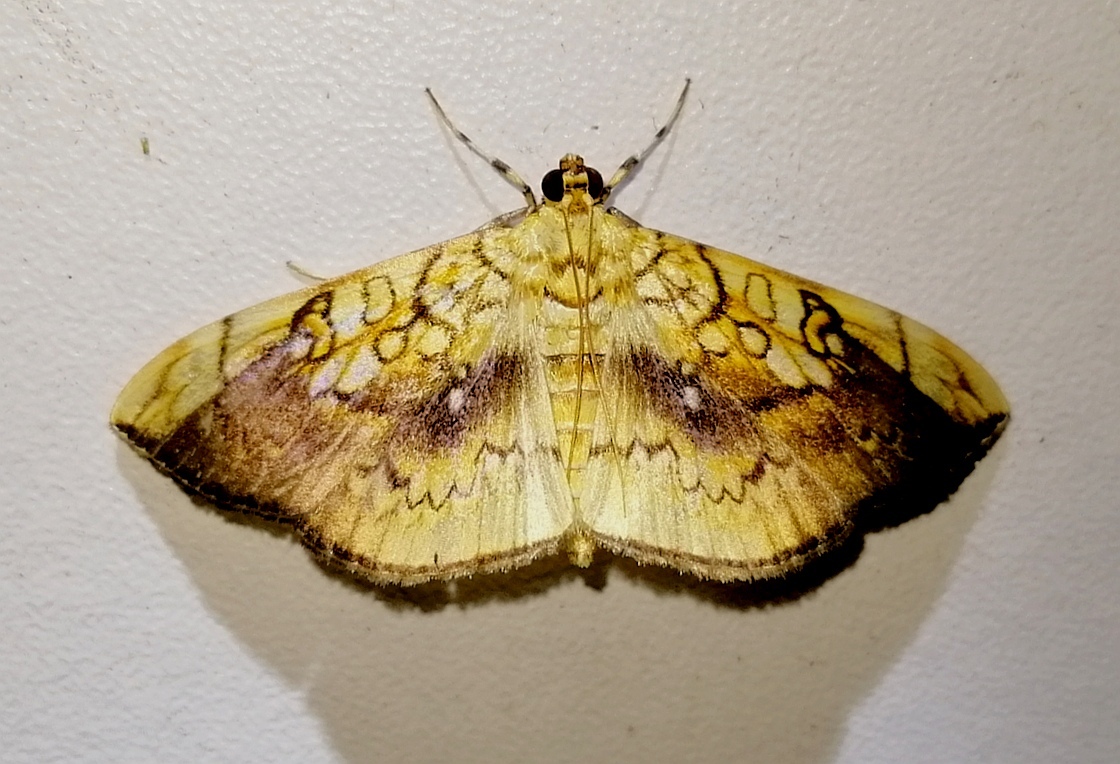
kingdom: Animalia
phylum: Arthropoda
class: Insecta
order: Lepidoptera
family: Crambidae
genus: Pantographa
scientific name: Pantographa limata
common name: Basswood leafroller moth
